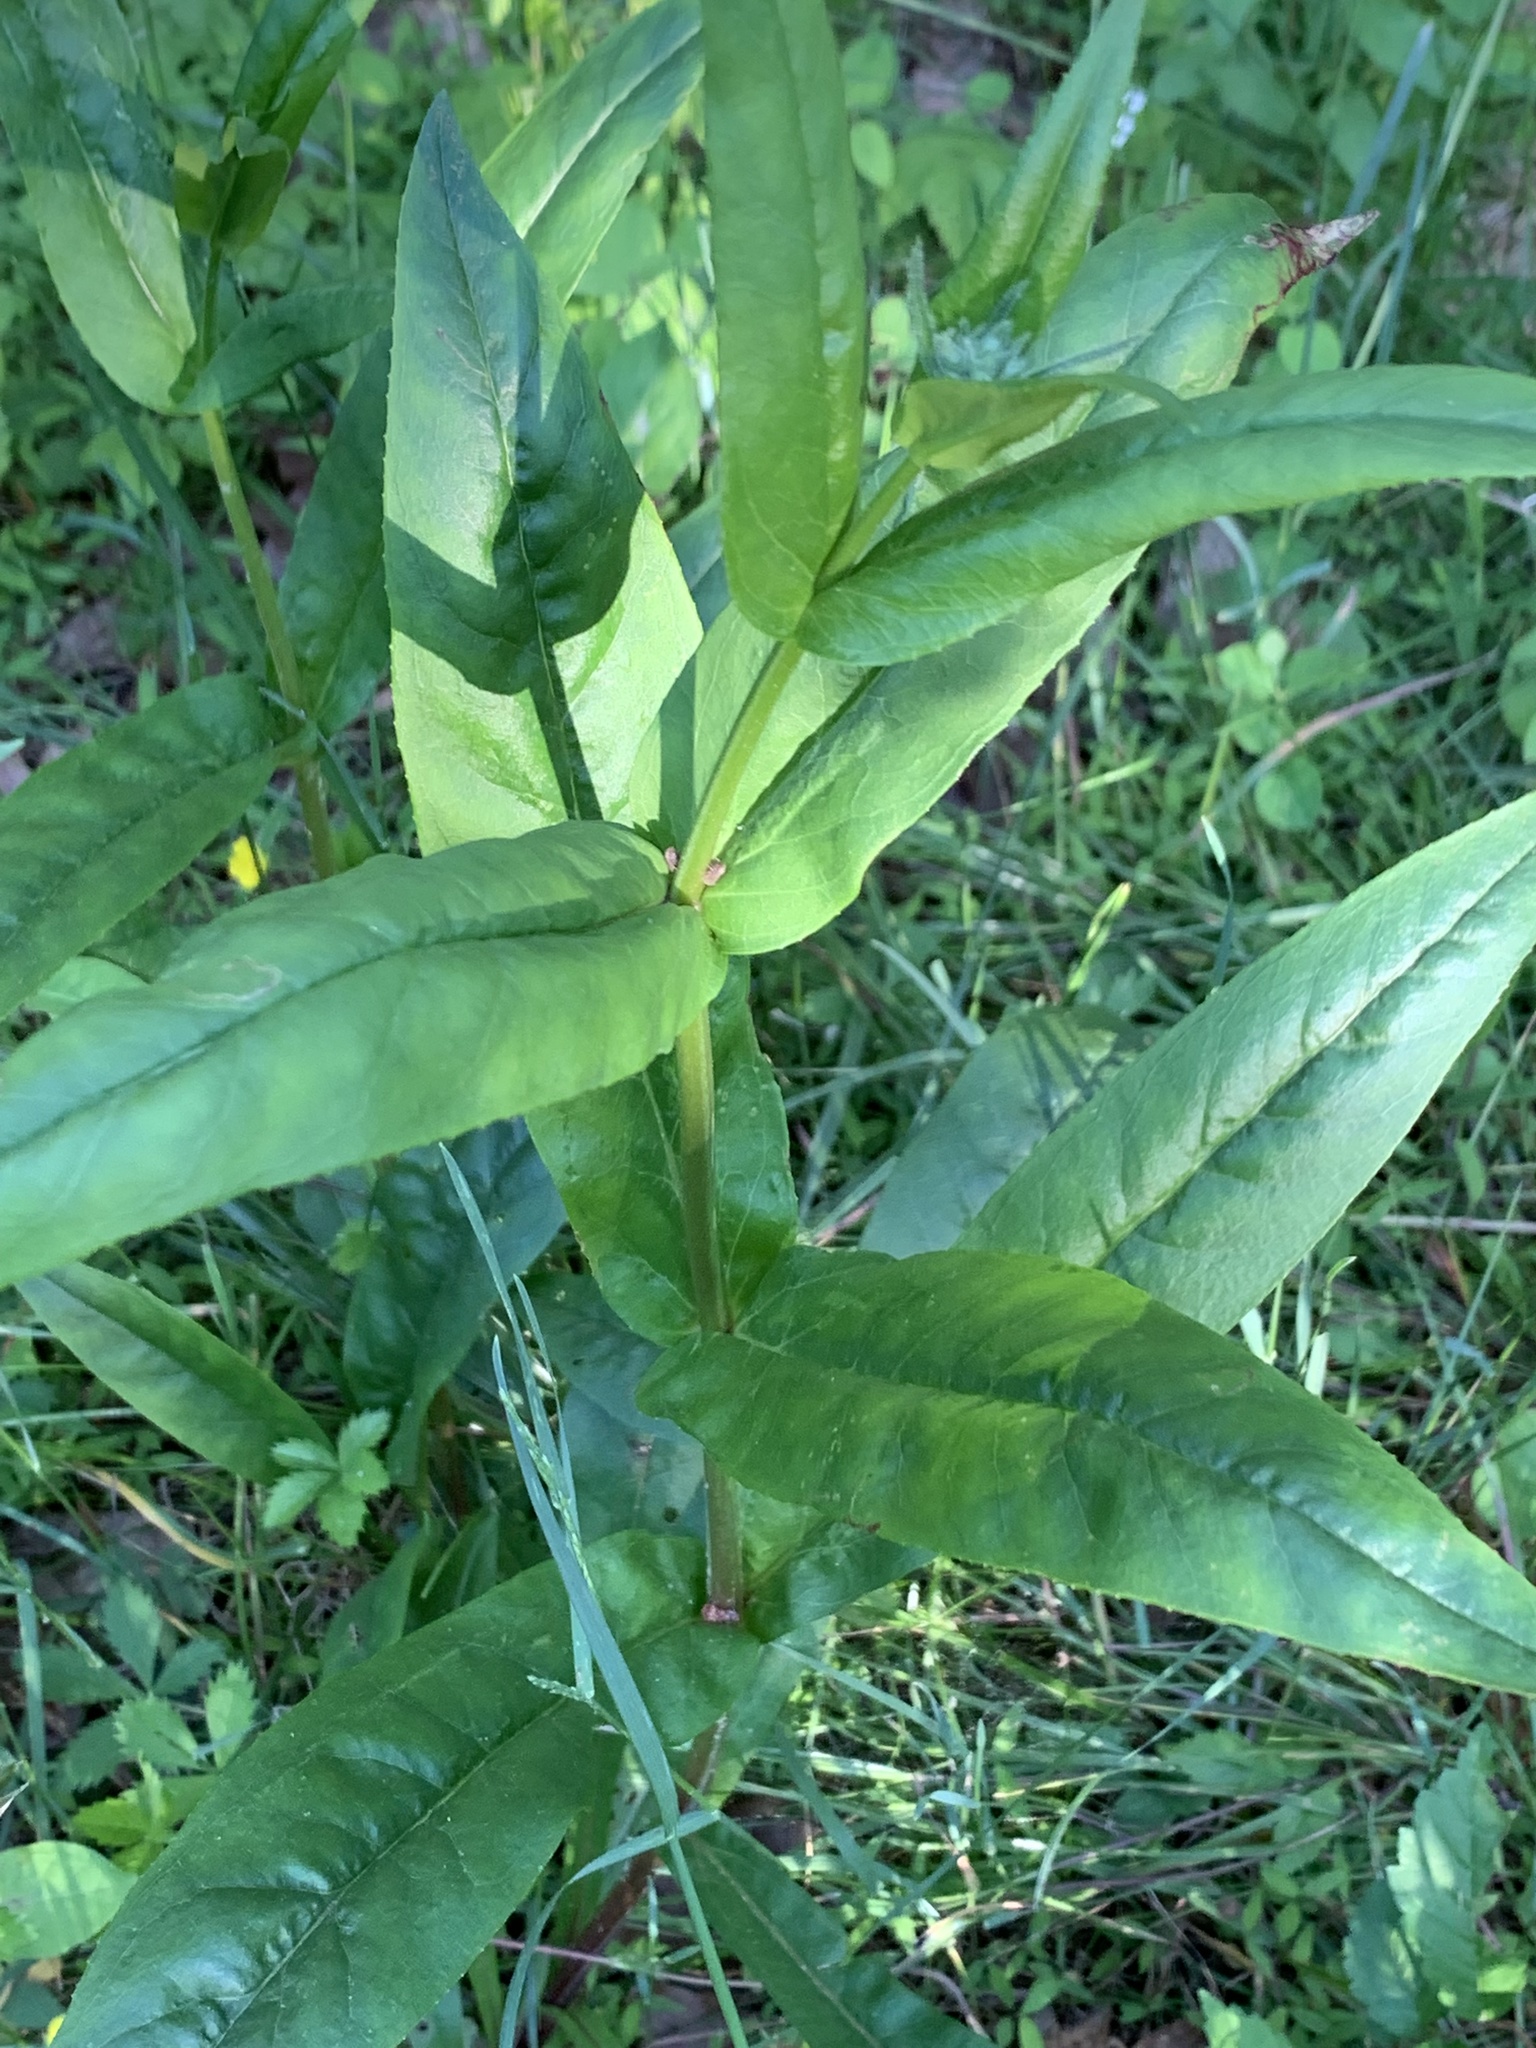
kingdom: Plantae
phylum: Tracheophyta
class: Magnoliopsida
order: Lamiales
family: Plantaginaceae
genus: Penstemon
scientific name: Penstemon digitalis
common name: Foxglove beardtongue
